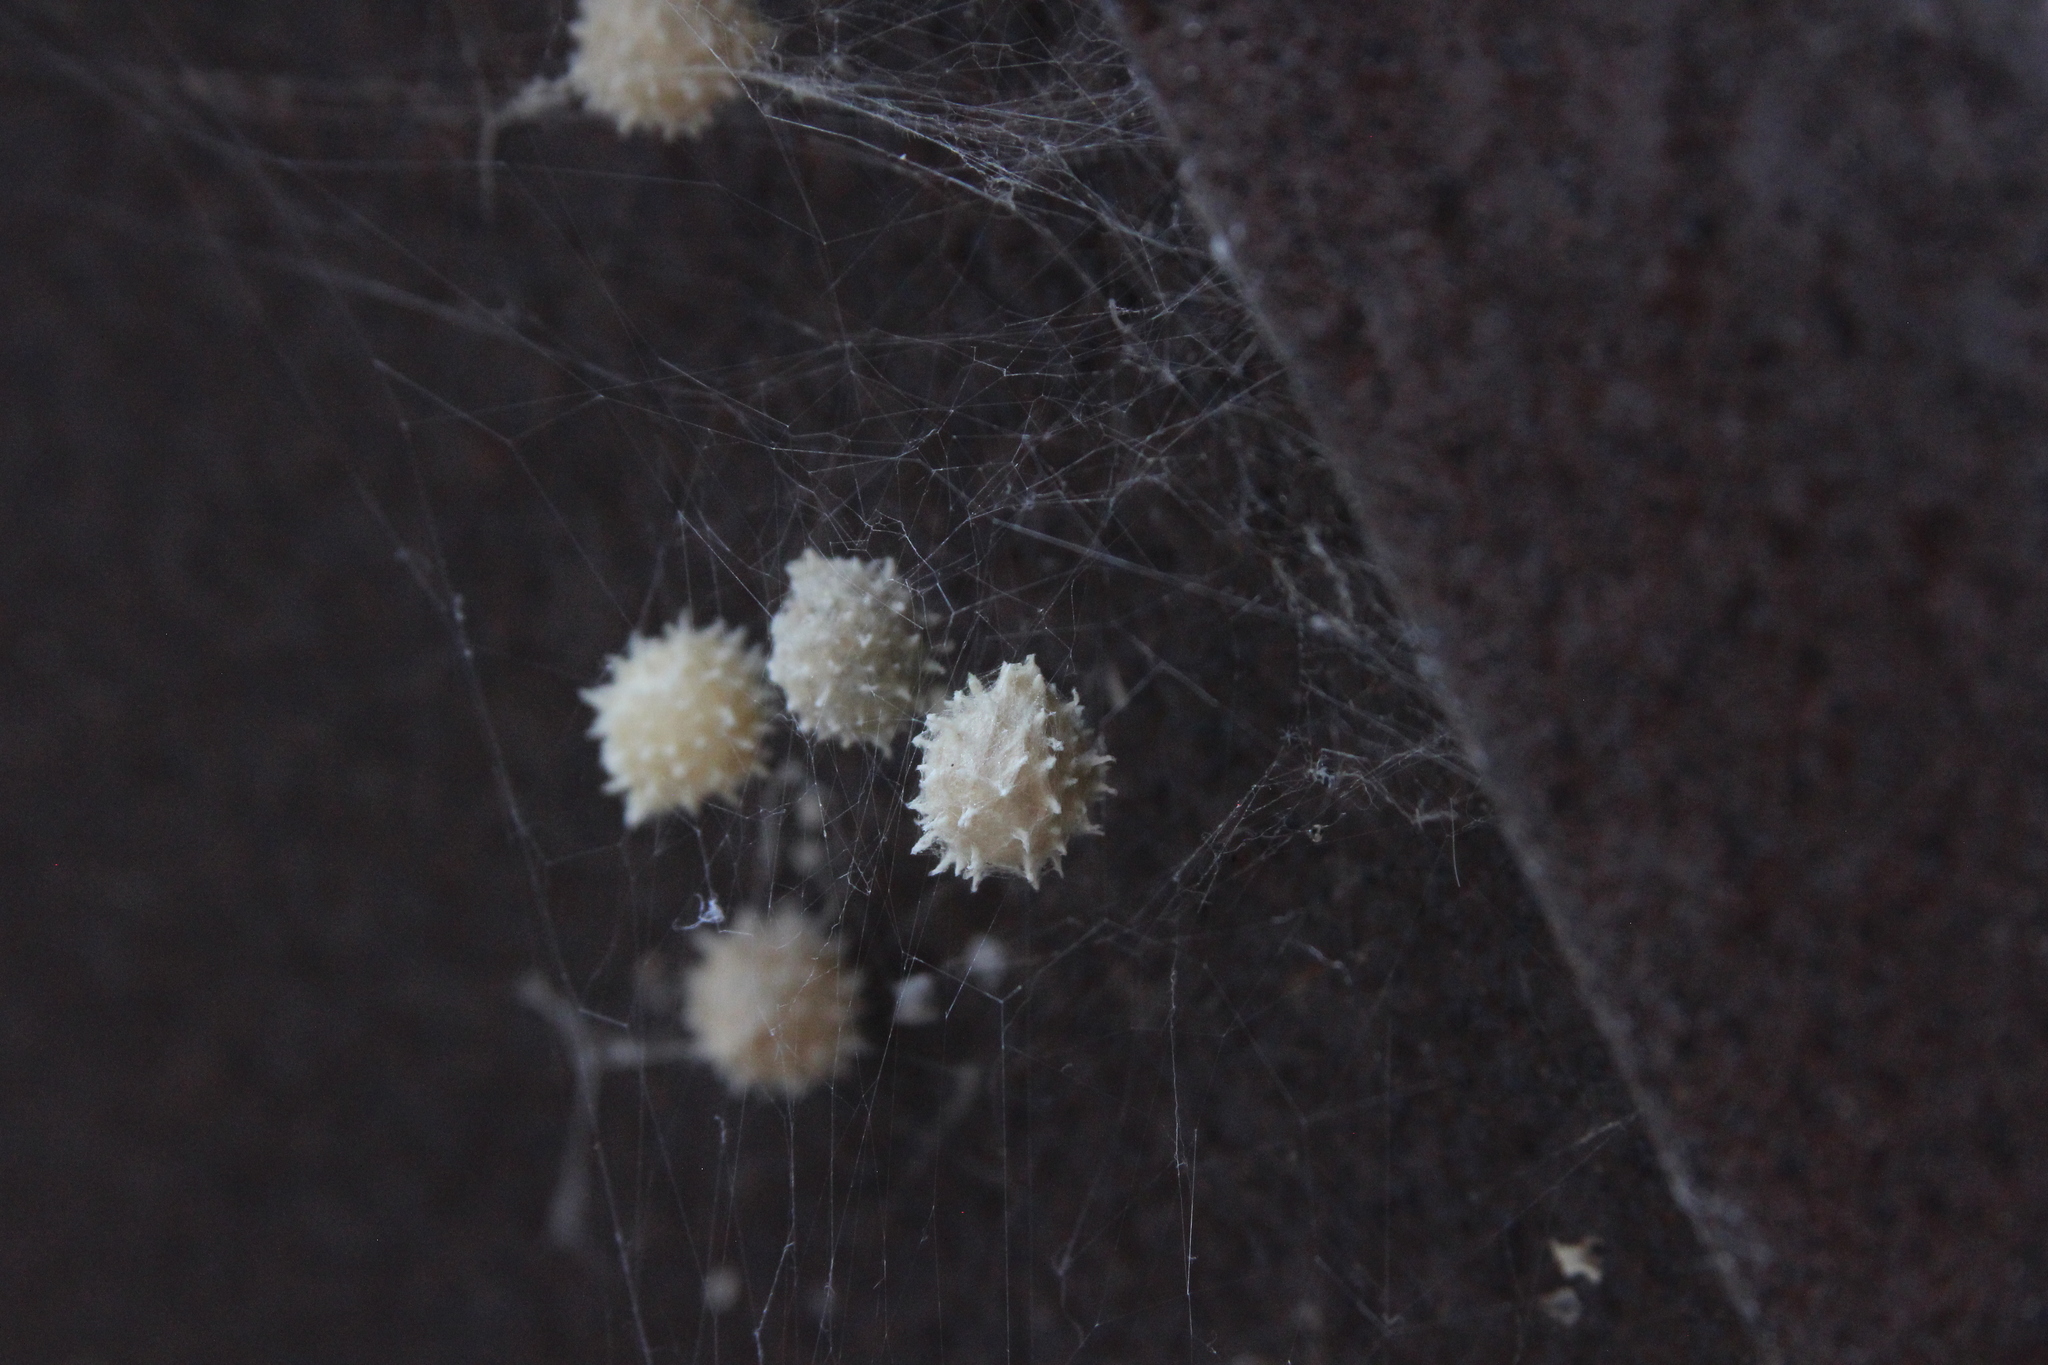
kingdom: Animalia
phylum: Arthropoda
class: Arachnida
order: Araneae
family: Theridiidae
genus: Latrodectus
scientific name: Latrodectus geometricus
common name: Brown widow spider
